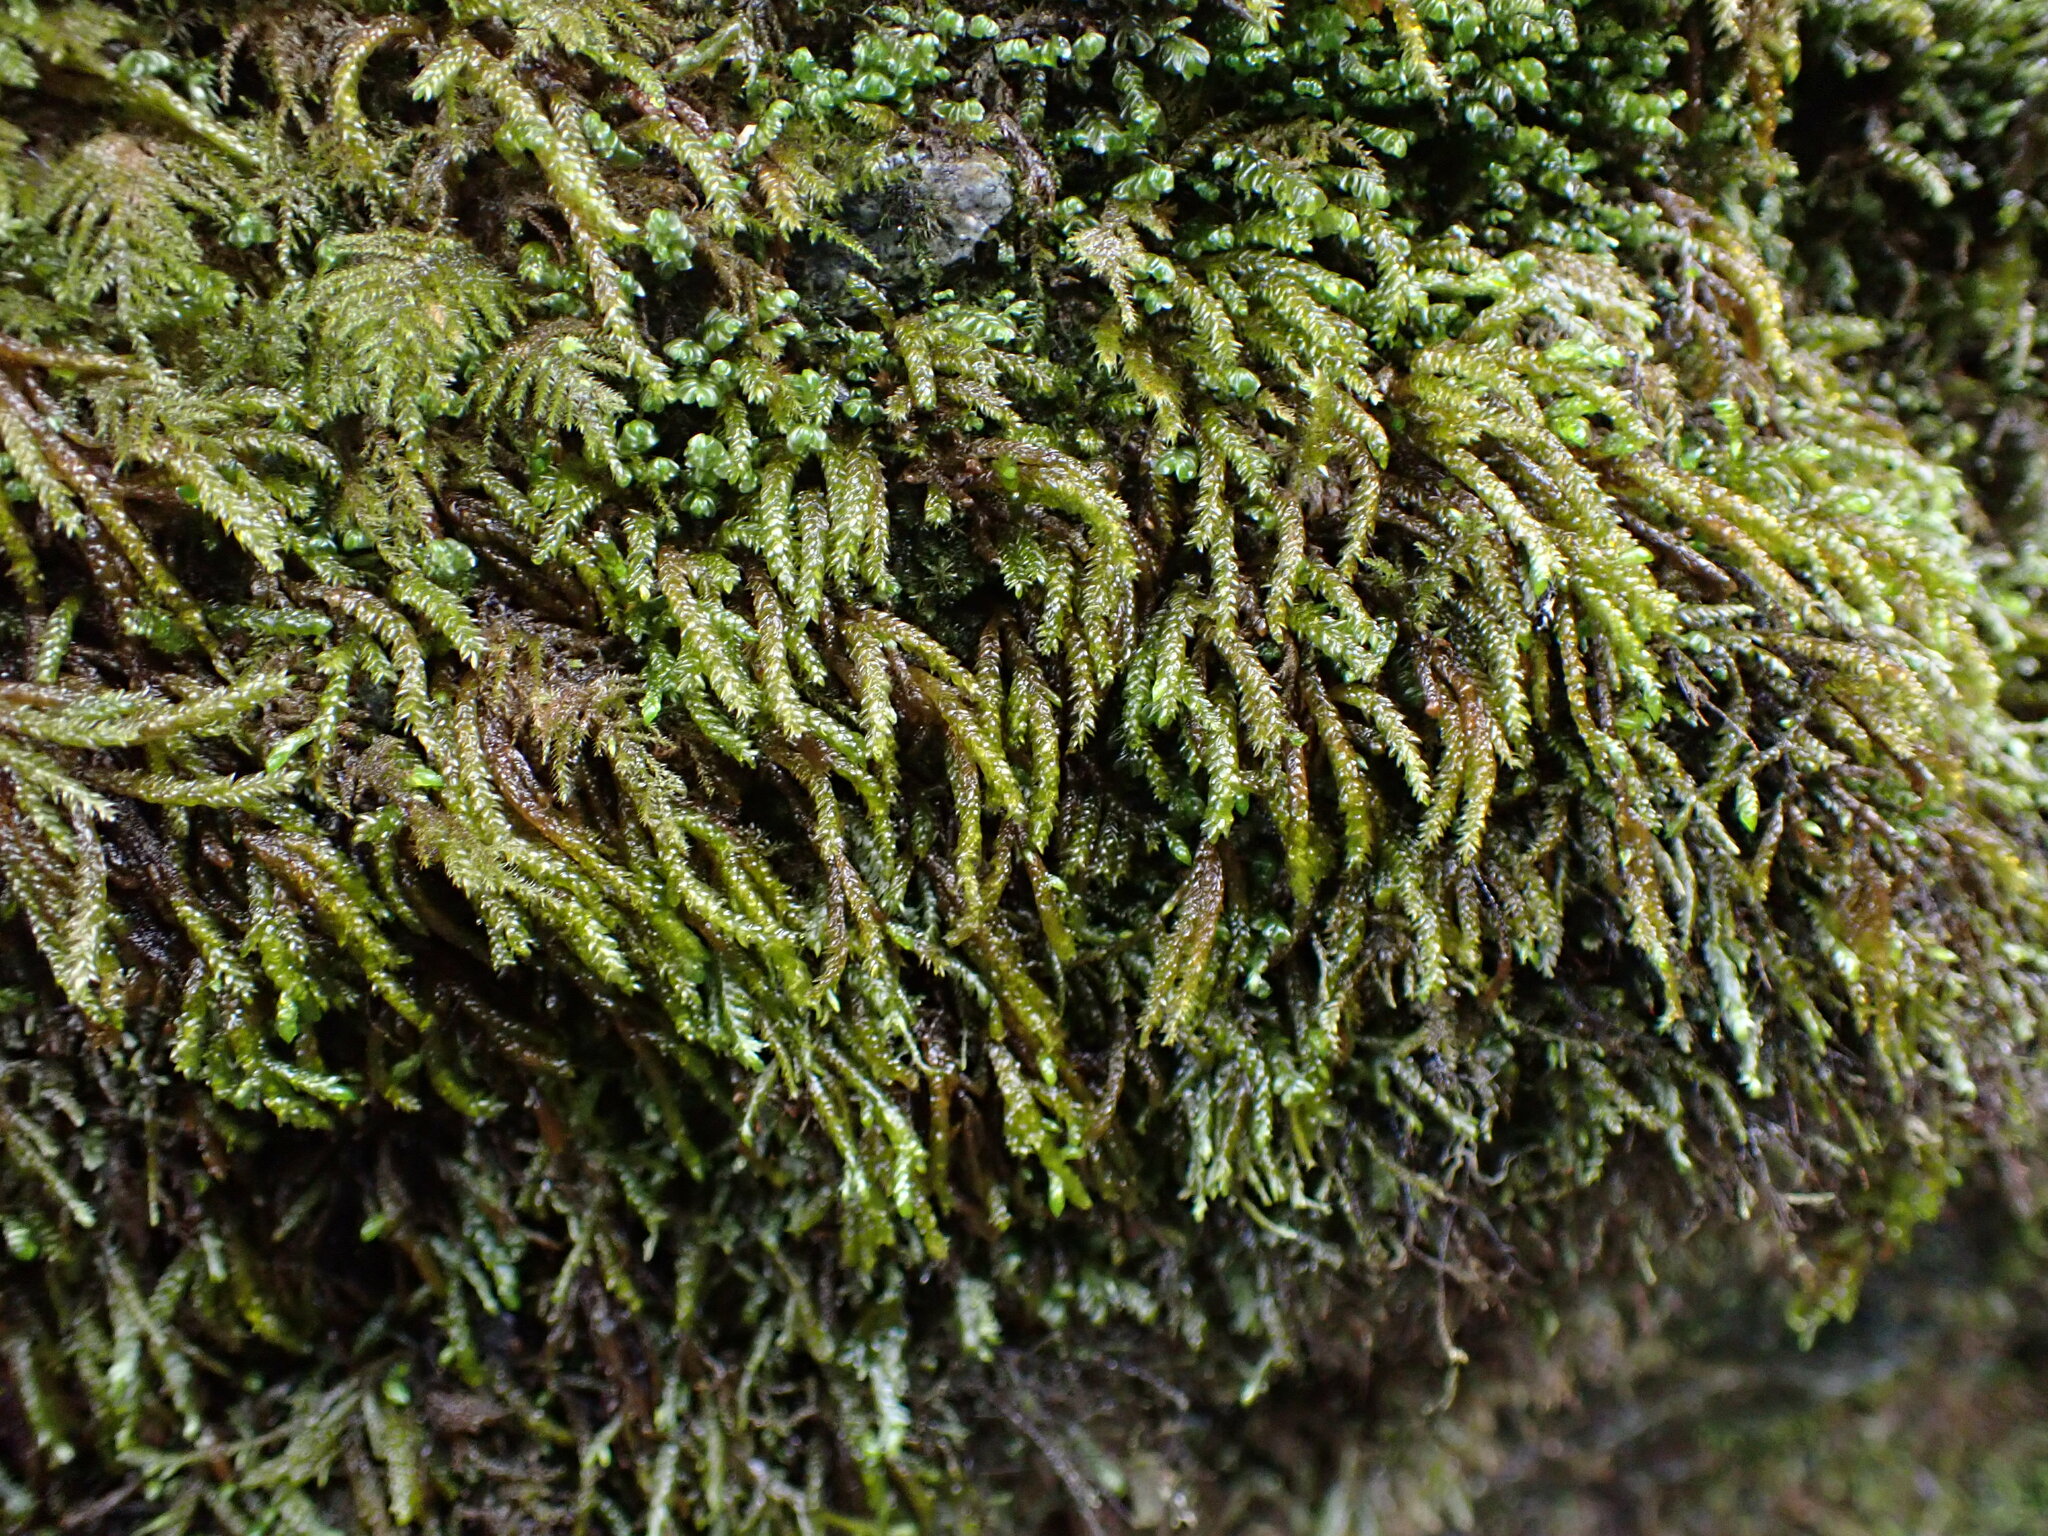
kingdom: Plantae
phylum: Bryophyta
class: Bryopsida
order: Hypnales
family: Brachytheciaceae
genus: Scleropodium
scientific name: Scleropodium obtusifolium
